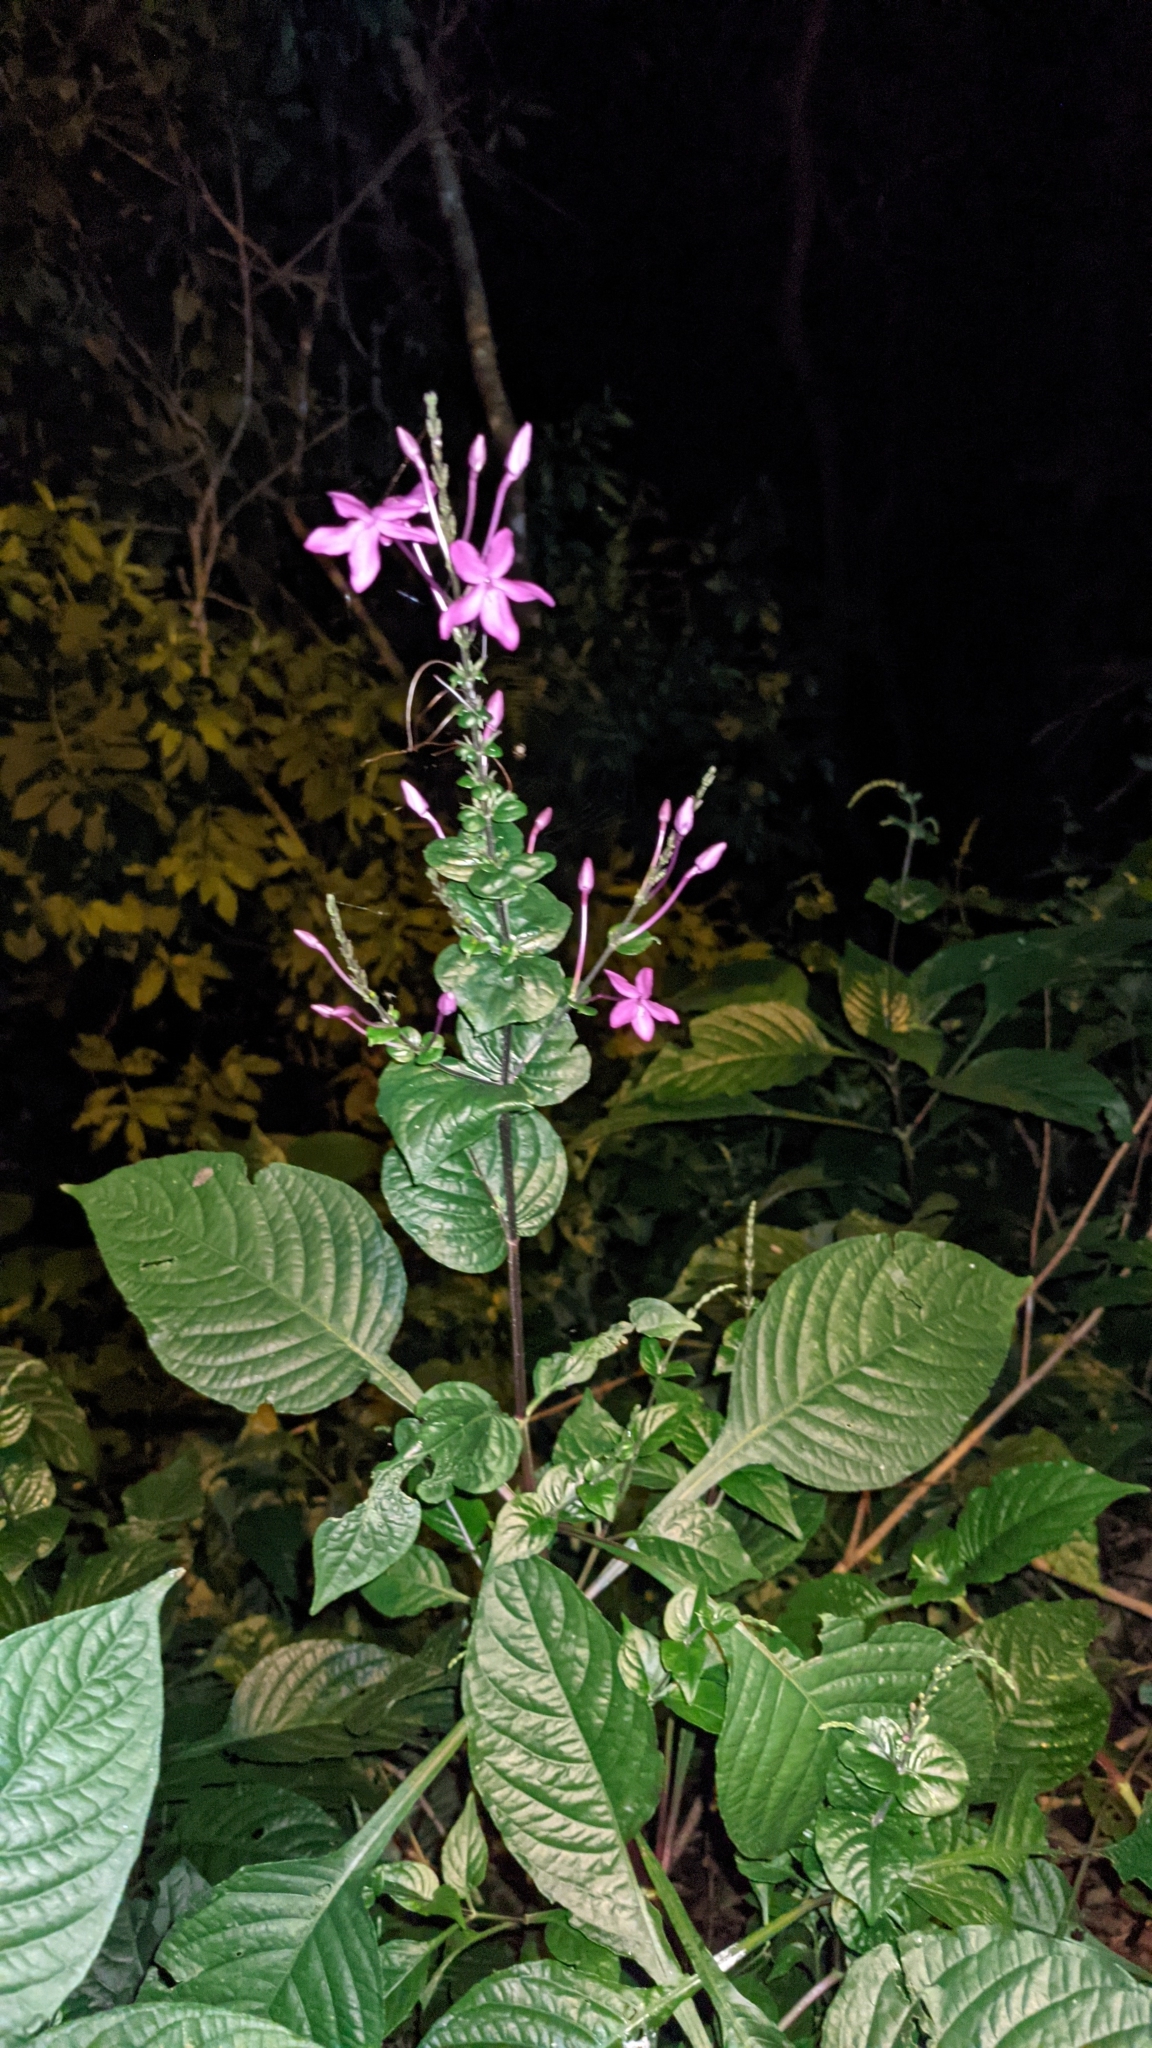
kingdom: Plantae
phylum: Tracheophyta
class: Magnoliopsida
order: Lamiales
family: Acanthaceae
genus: Pseuderanthemum
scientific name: Pseuderanthemum cuspidatum
